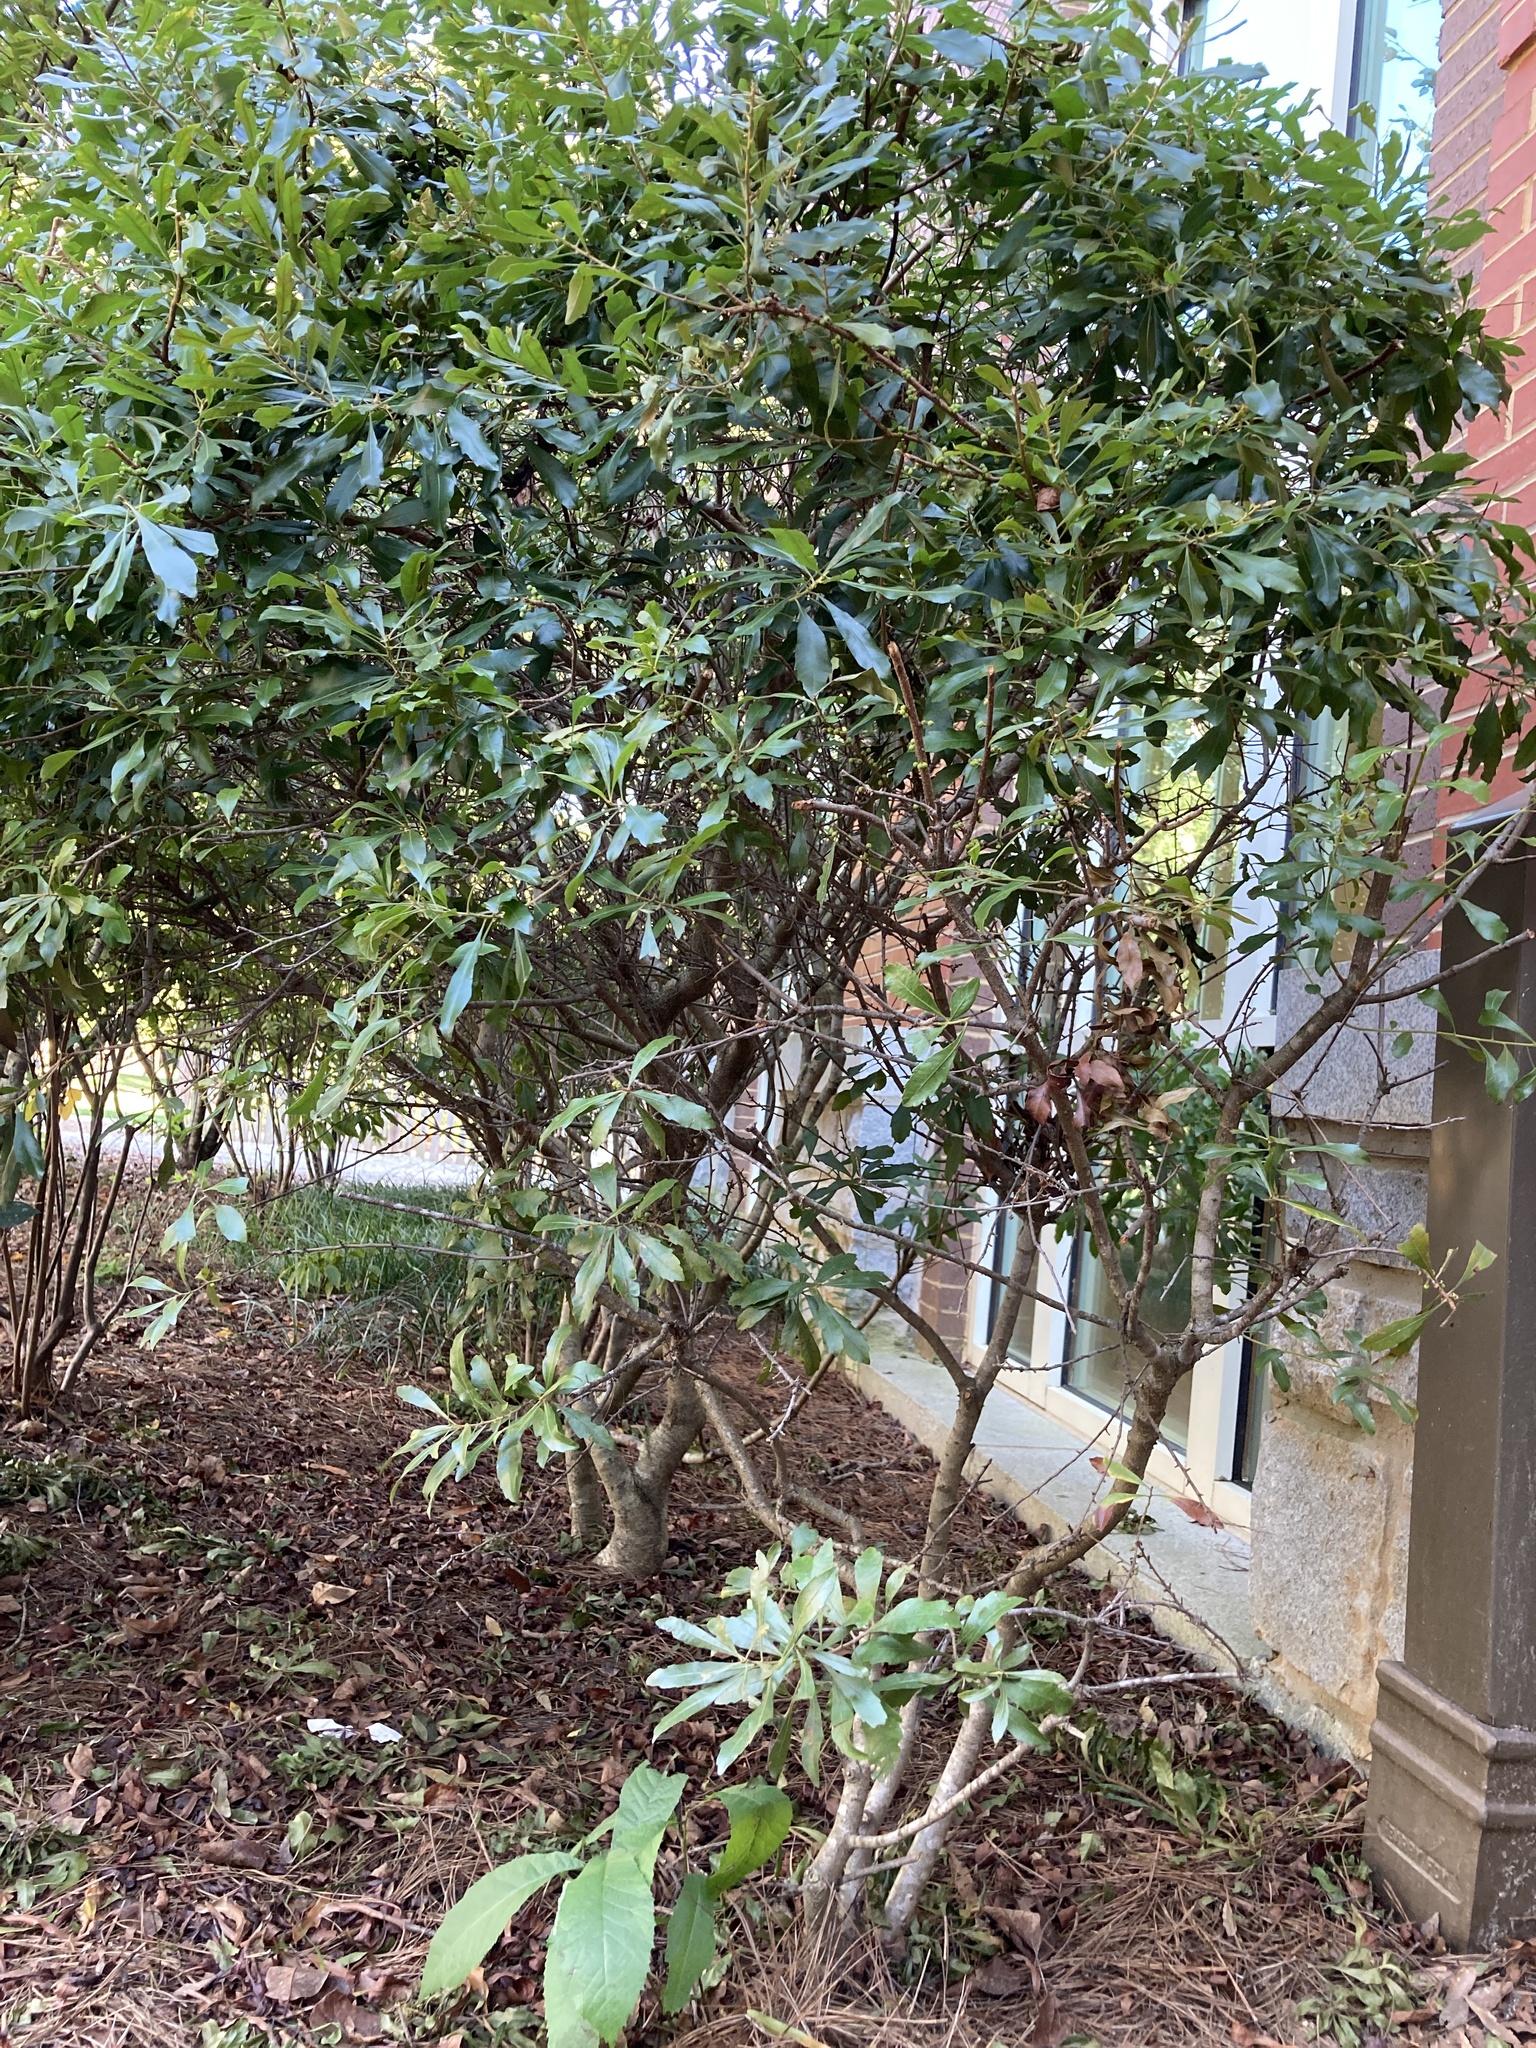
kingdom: Plantae
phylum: Tracheophyta
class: Magnoliopsida
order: Fagales
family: Myricaceae
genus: Morella
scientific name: Morella cerifera
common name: Wax myrtle
